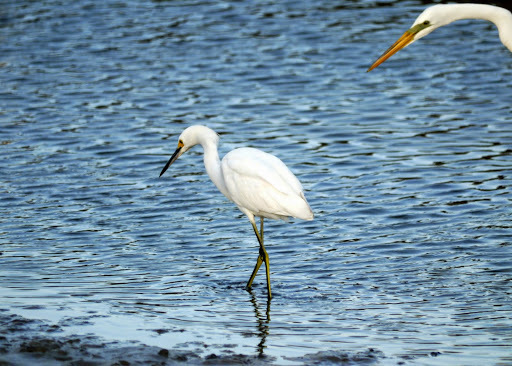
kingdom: Animalia
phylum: Chordata
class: Aves
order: Pelecaniformes
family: Ardeidae
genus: Egretta
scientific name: Egretta thula
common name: Snowy egret
